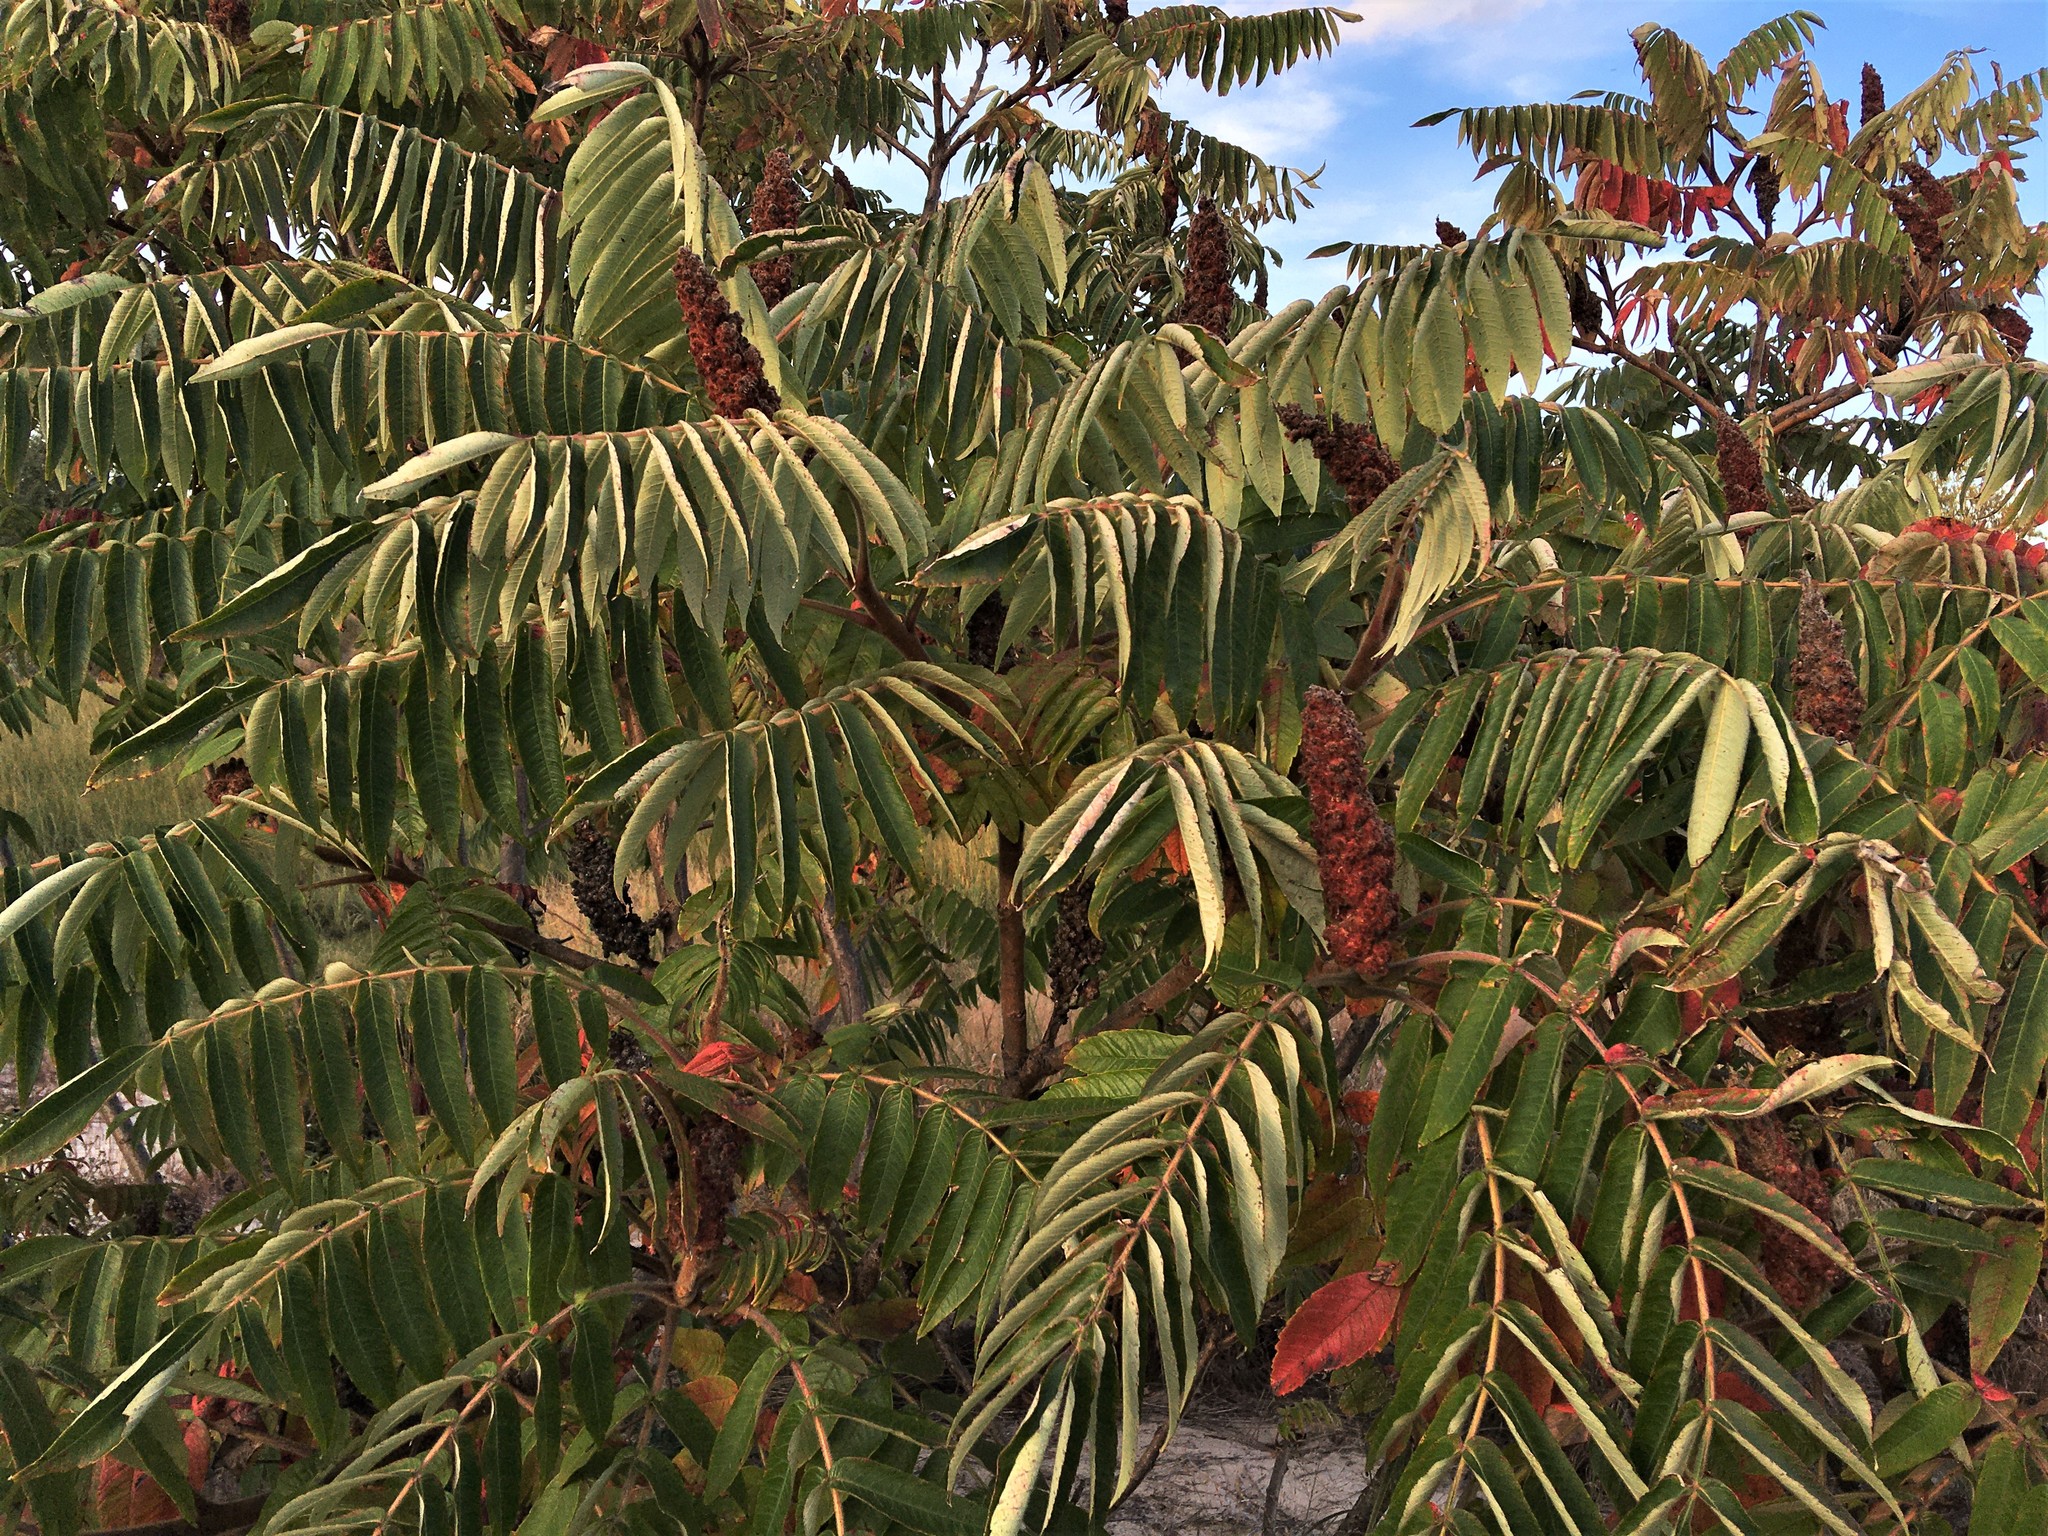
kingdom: Plantae
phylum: Tracheophyta
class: Magnoliopsida
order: Sapindales
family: Anacardiaceae
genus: Rhus
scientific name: Rhus typhina
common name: Staghorn sumac
